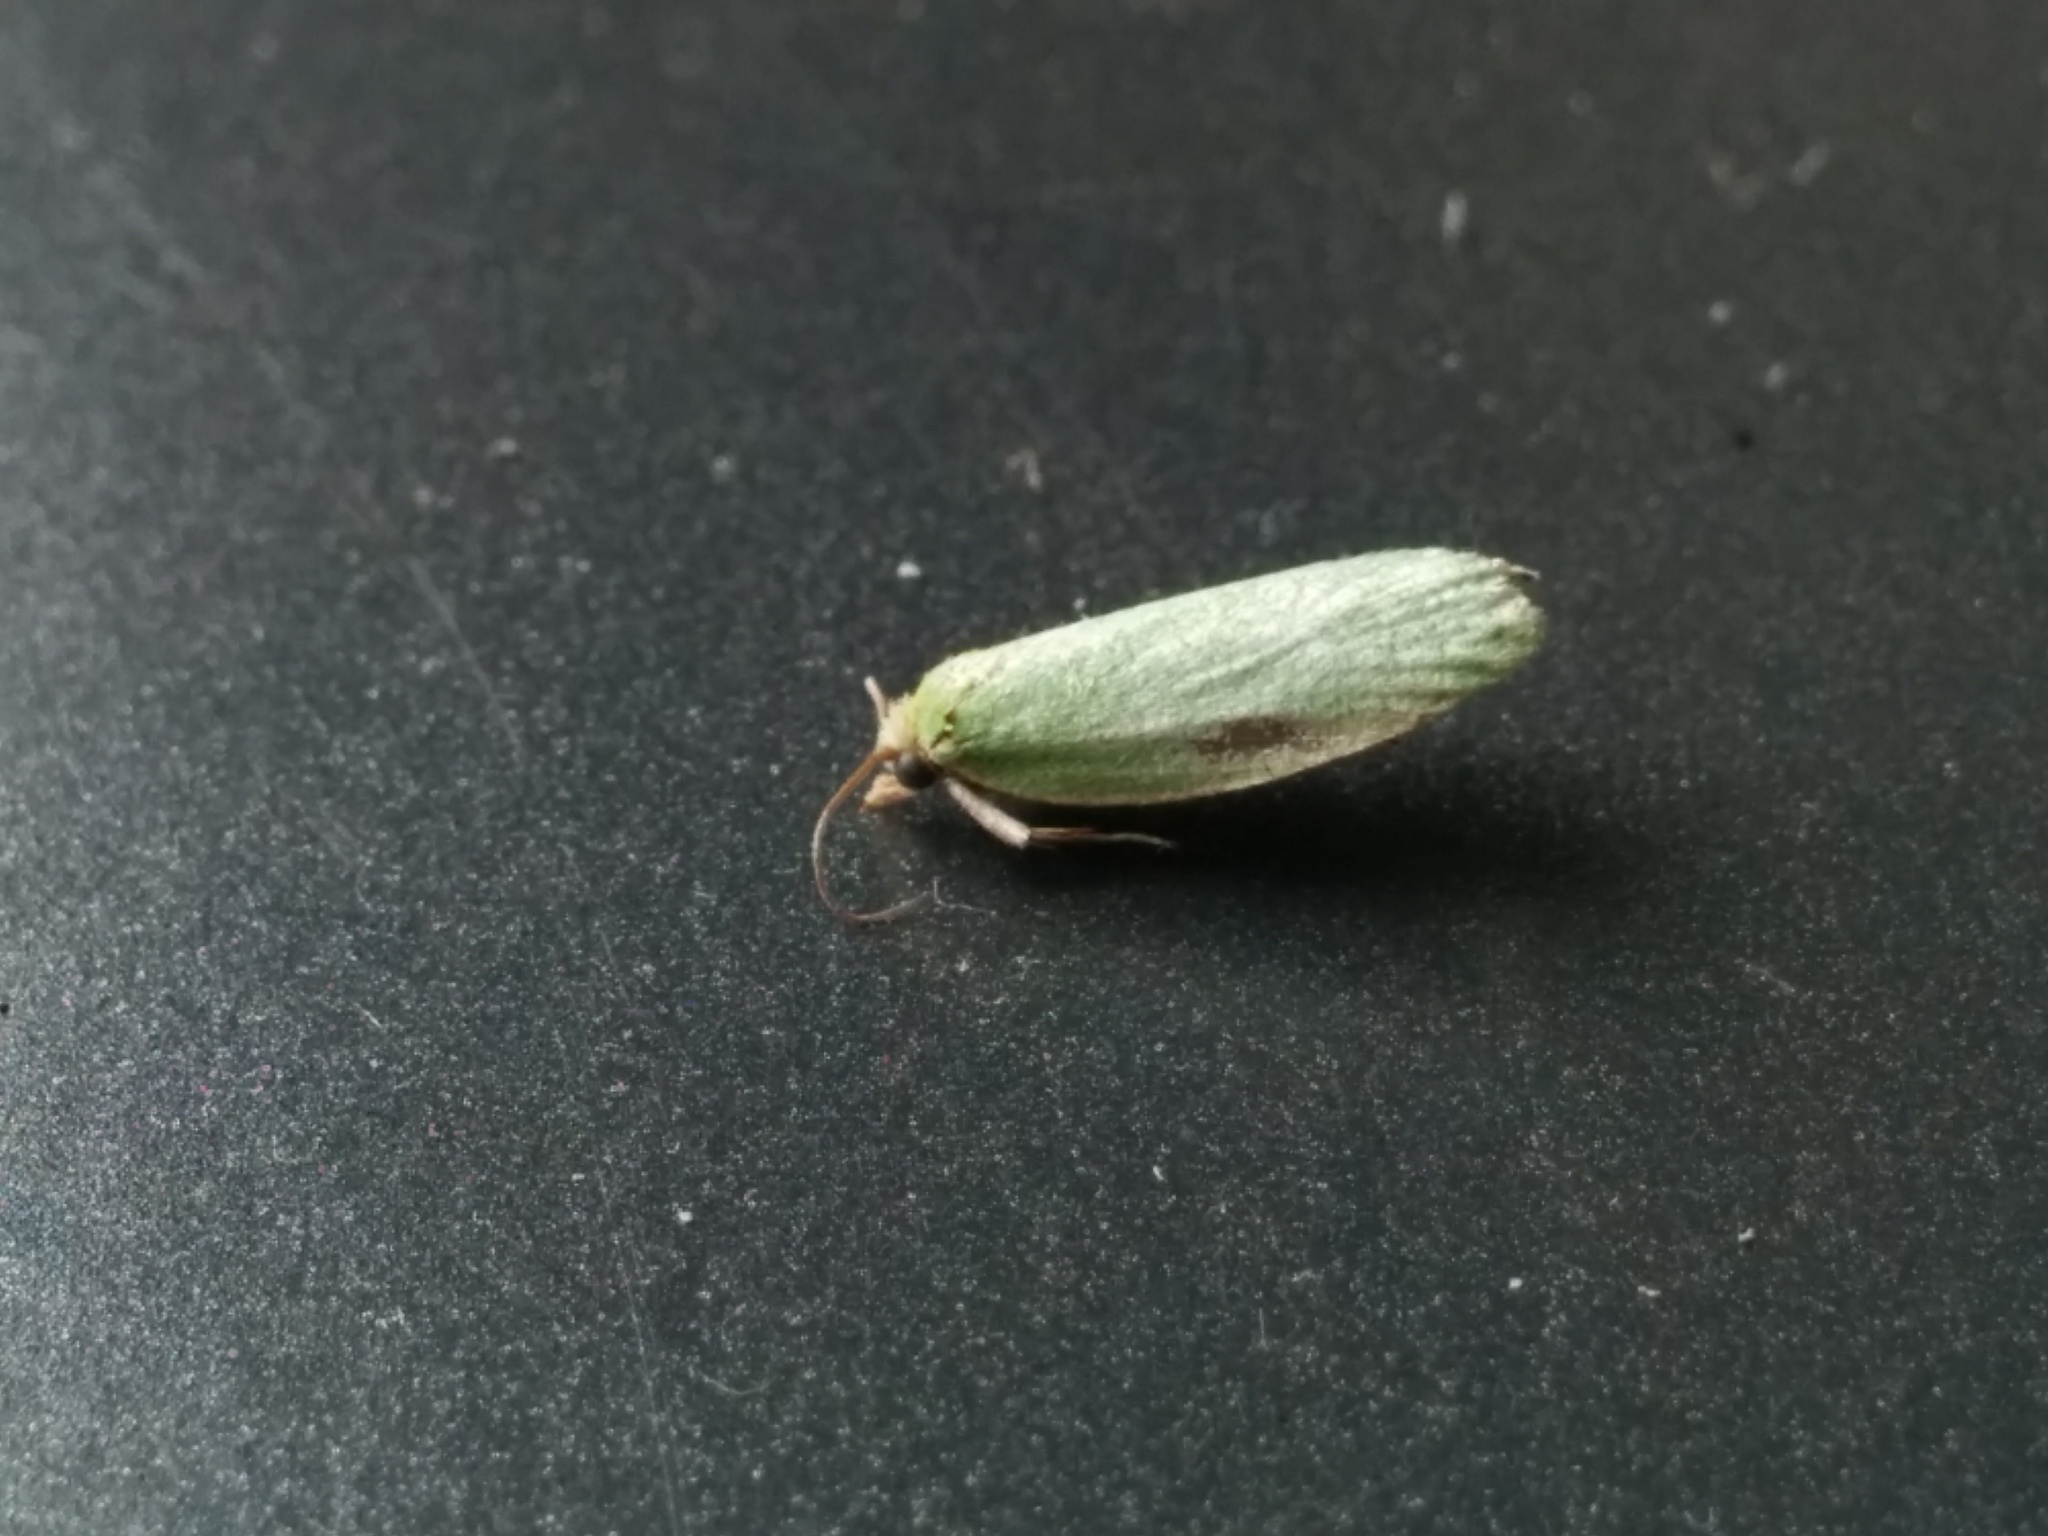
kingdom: Animalia
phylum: Arthropoda
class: Insecta
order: Lepidoptera
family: Tortricidae
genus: Tortrix
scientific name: Tortrix viridana
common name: Green oak tortrix
